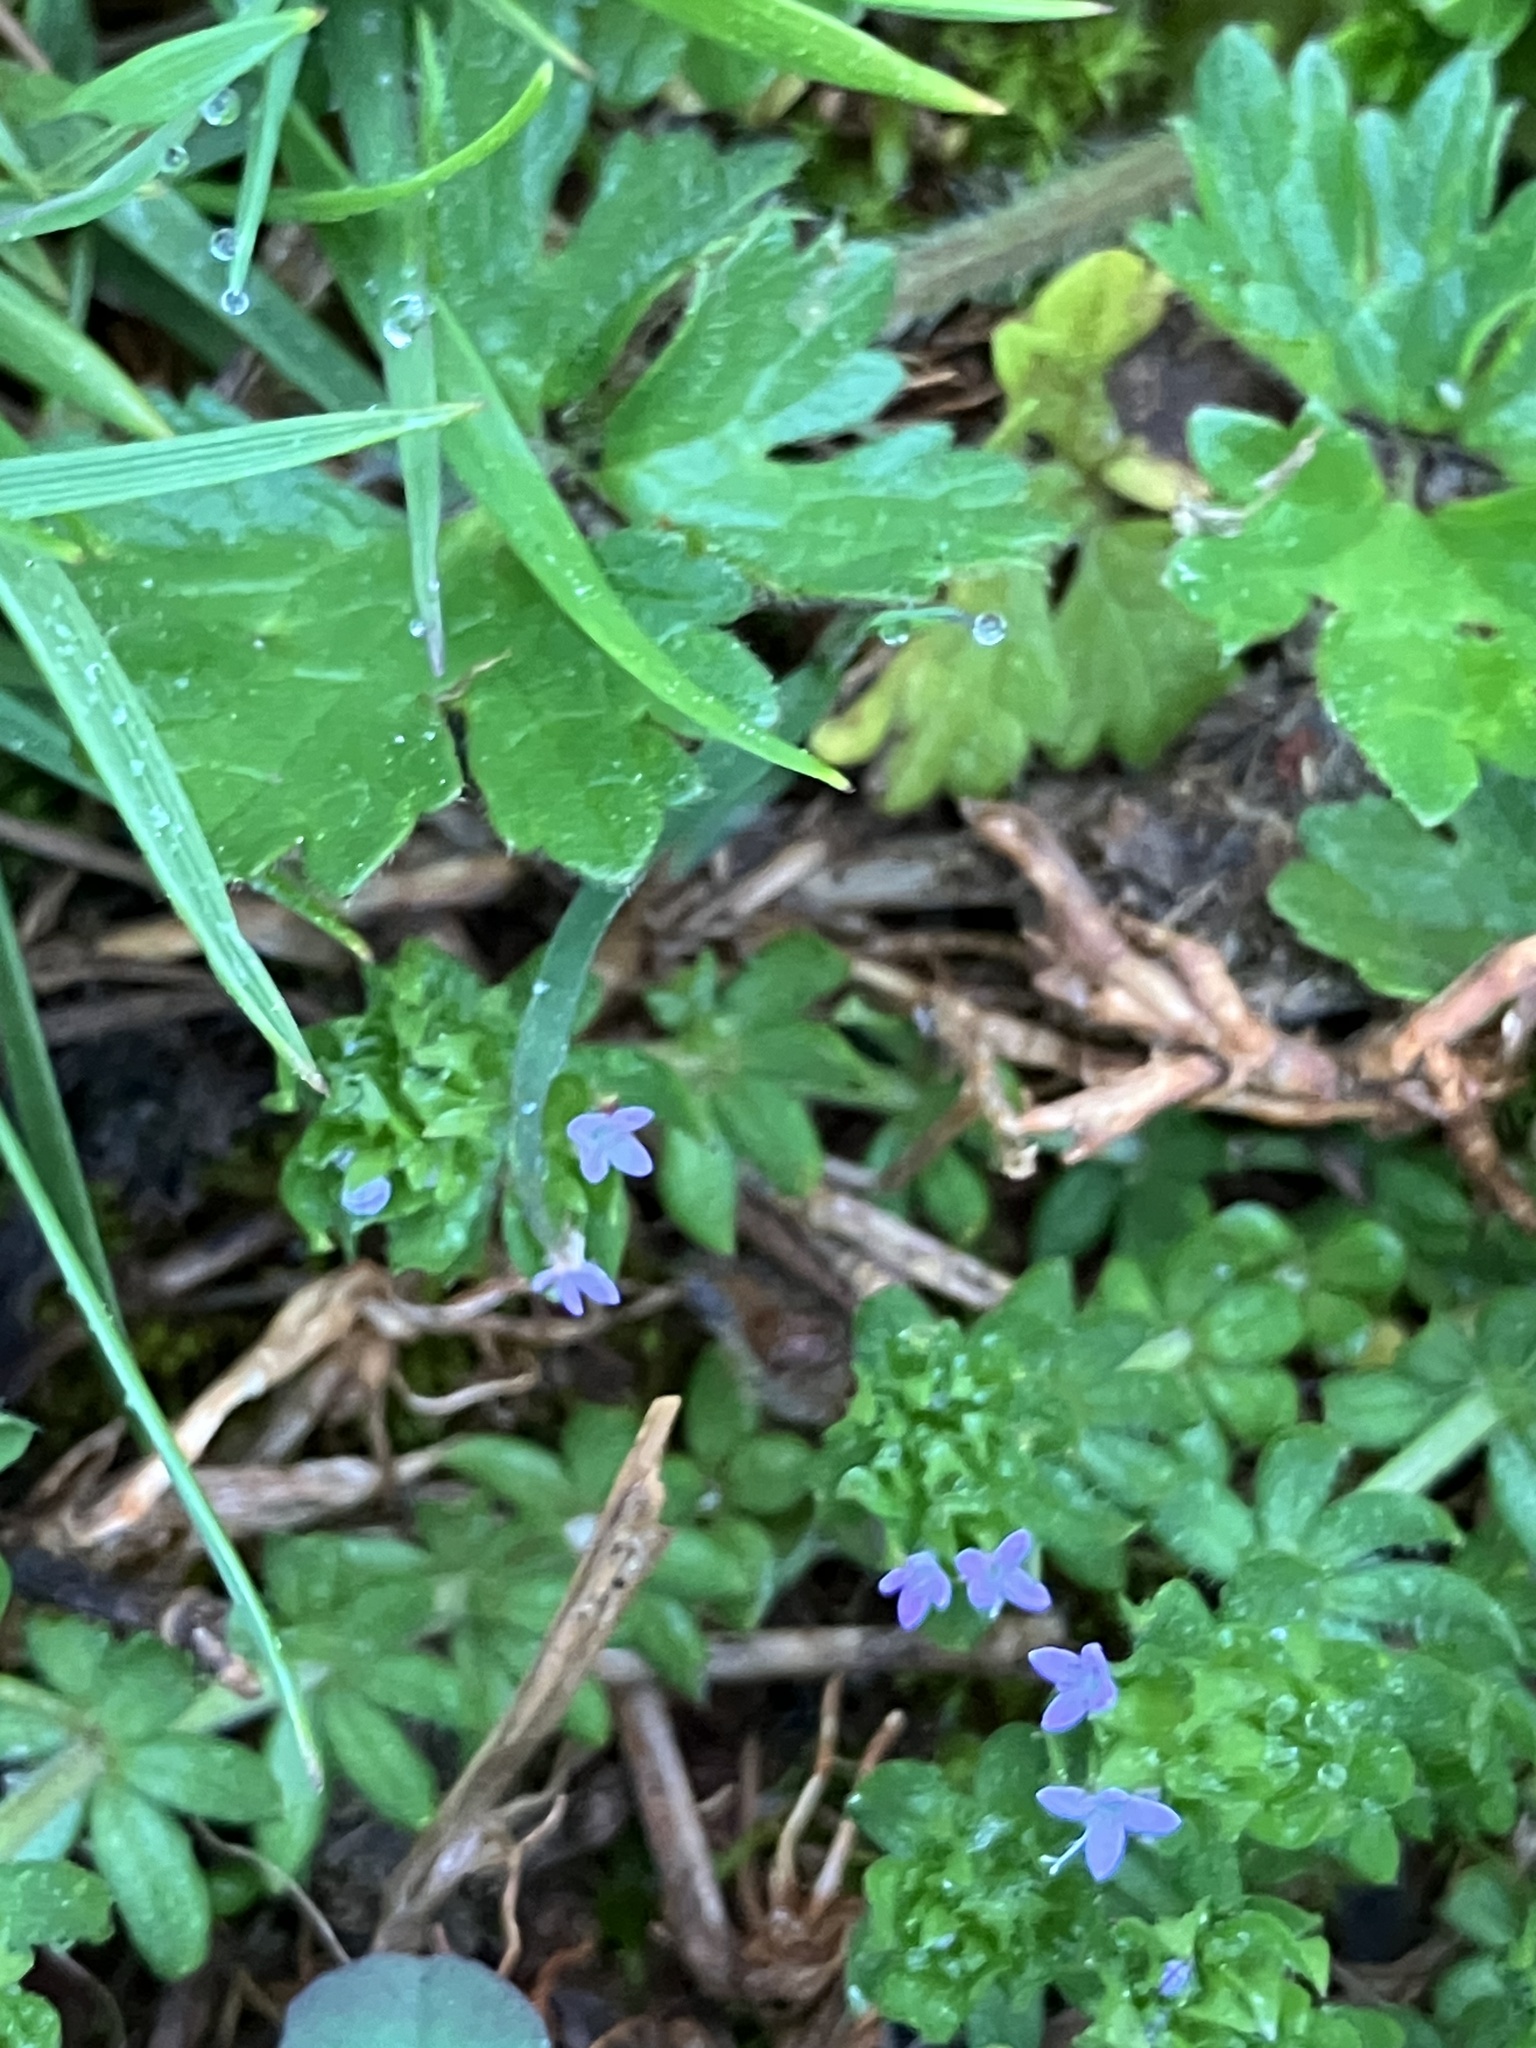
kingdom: Plantae
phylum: Tracheophyta
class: Magnoliopsida
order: Gentianales
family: Rubiaceae
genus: Sherardia
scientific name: Sherardia arvensis
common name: Field madder
